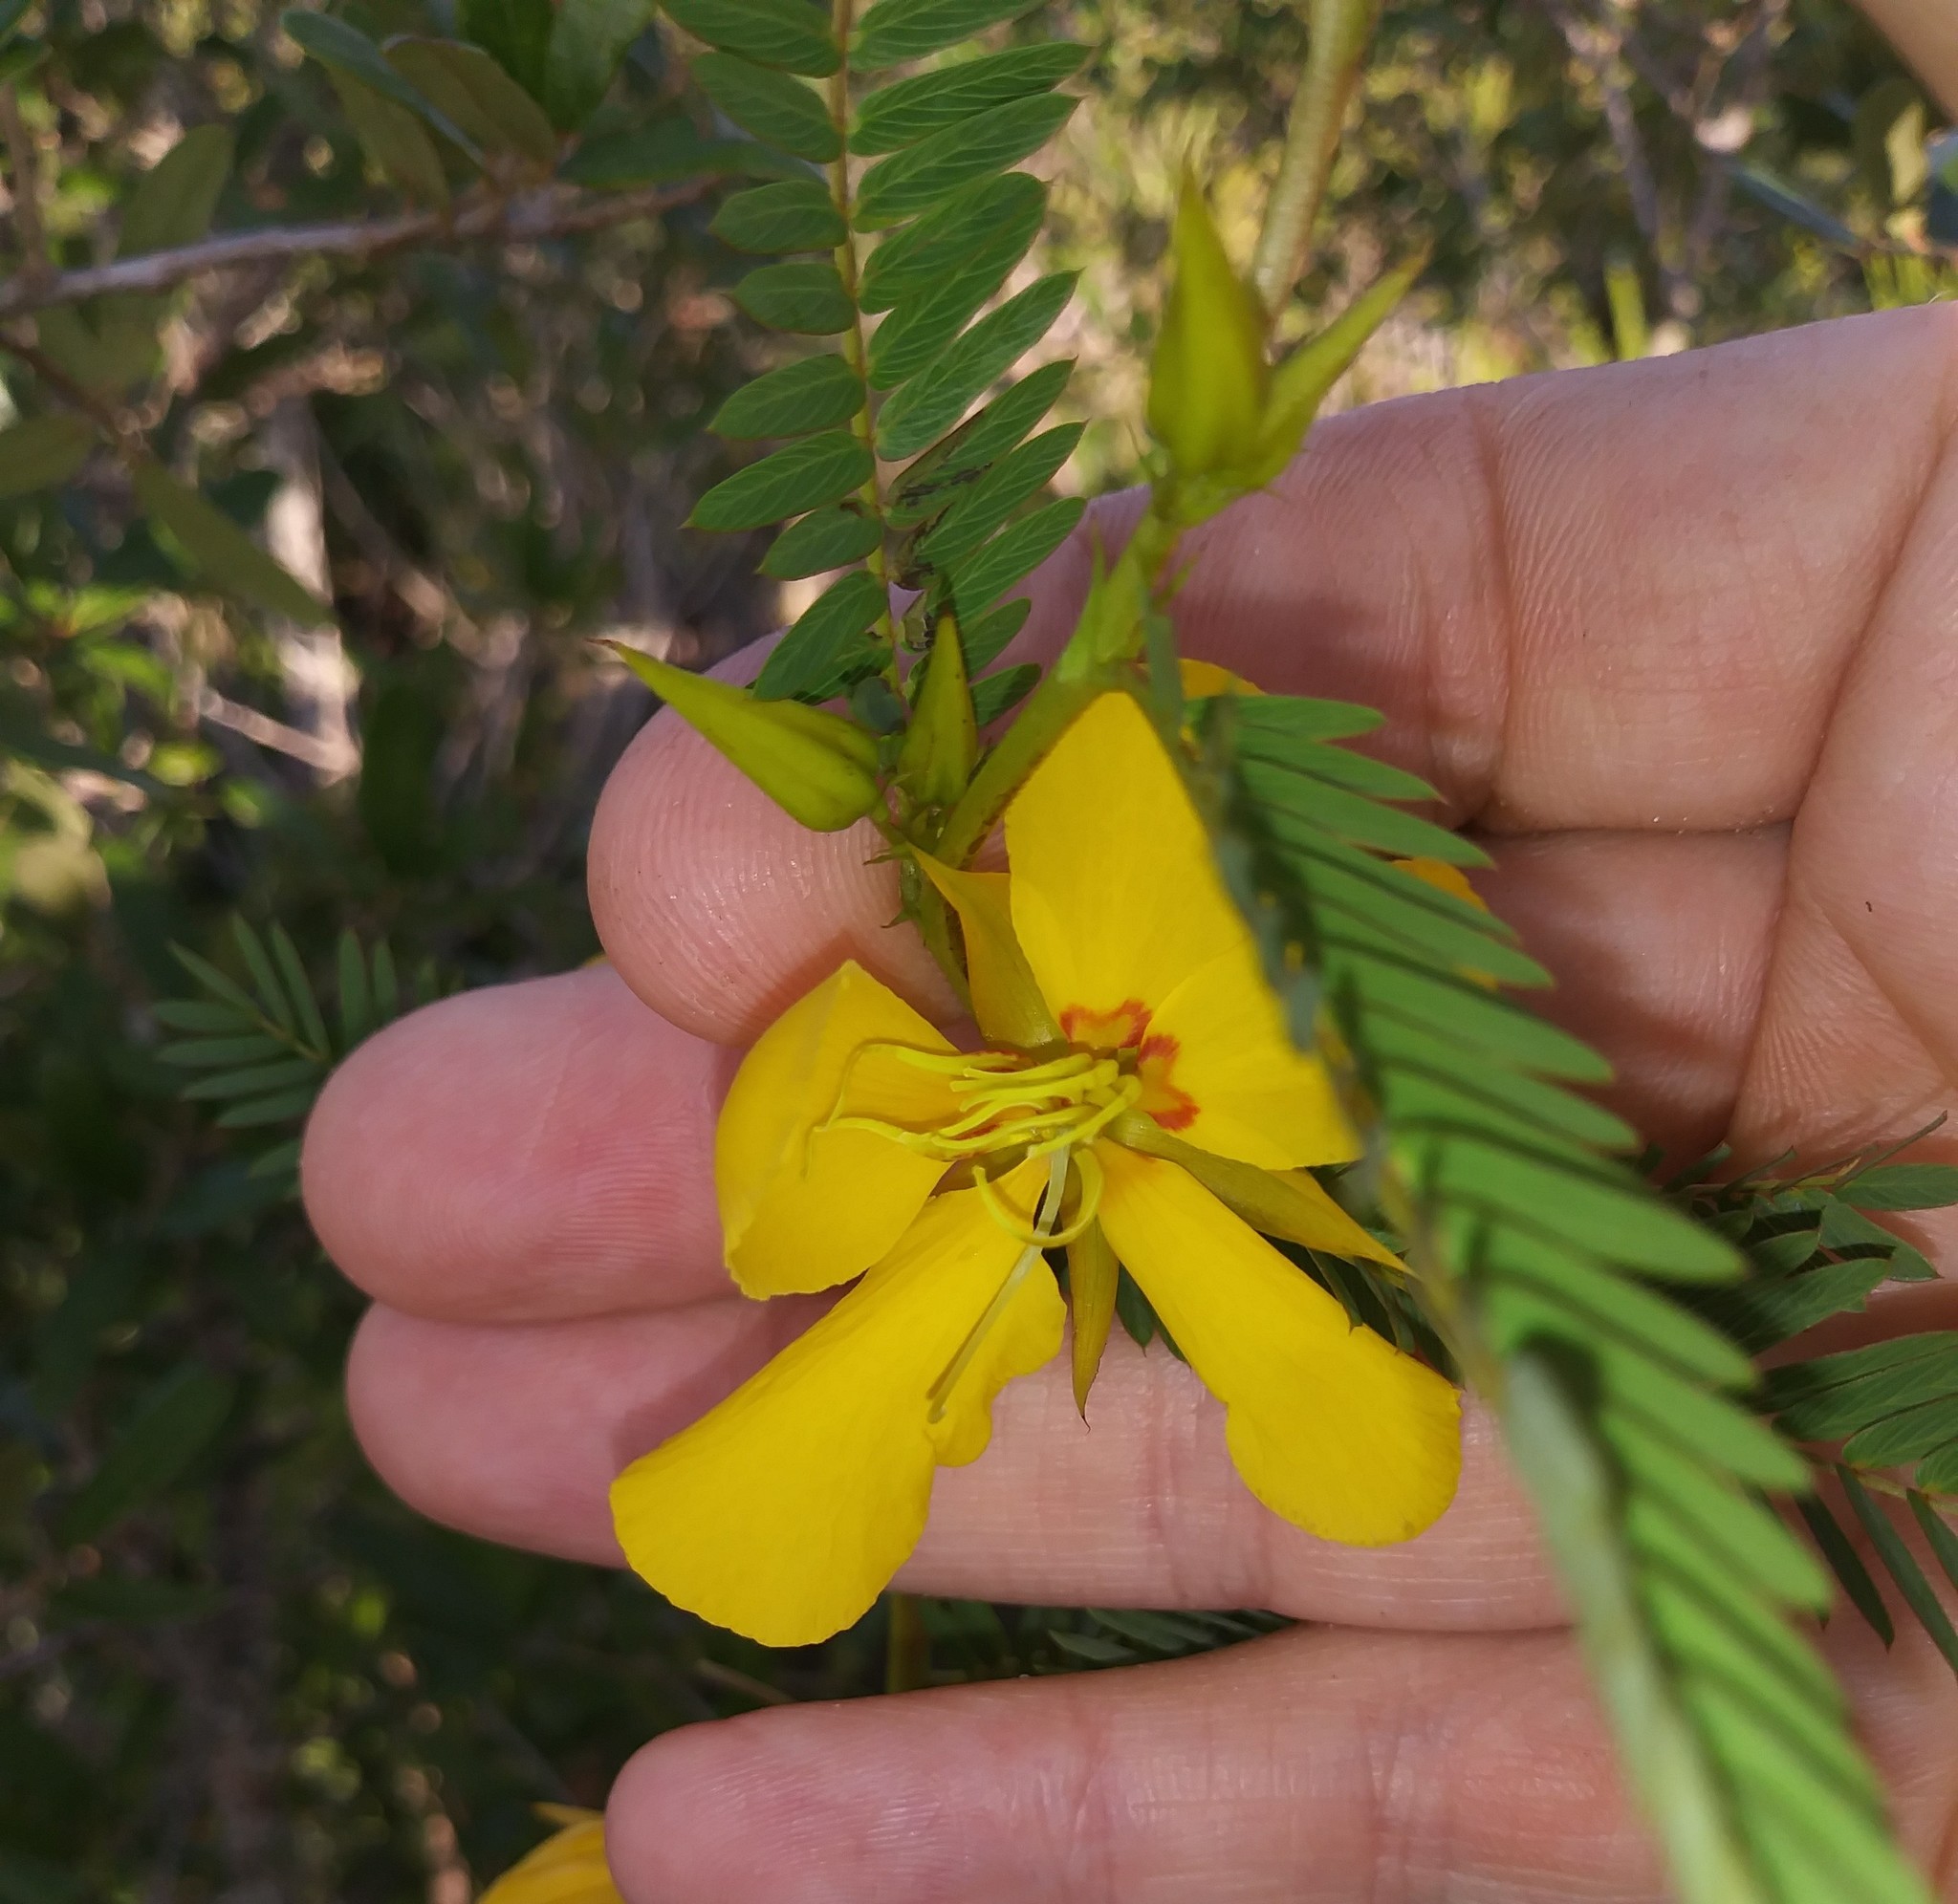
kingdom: Plantae
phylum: Tracheophyta
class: Magnoliopsida
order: Fabales
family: Fabaceae
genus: Chamaecrista
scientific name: Chamaecrista fasciculata
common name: Golden cassia
